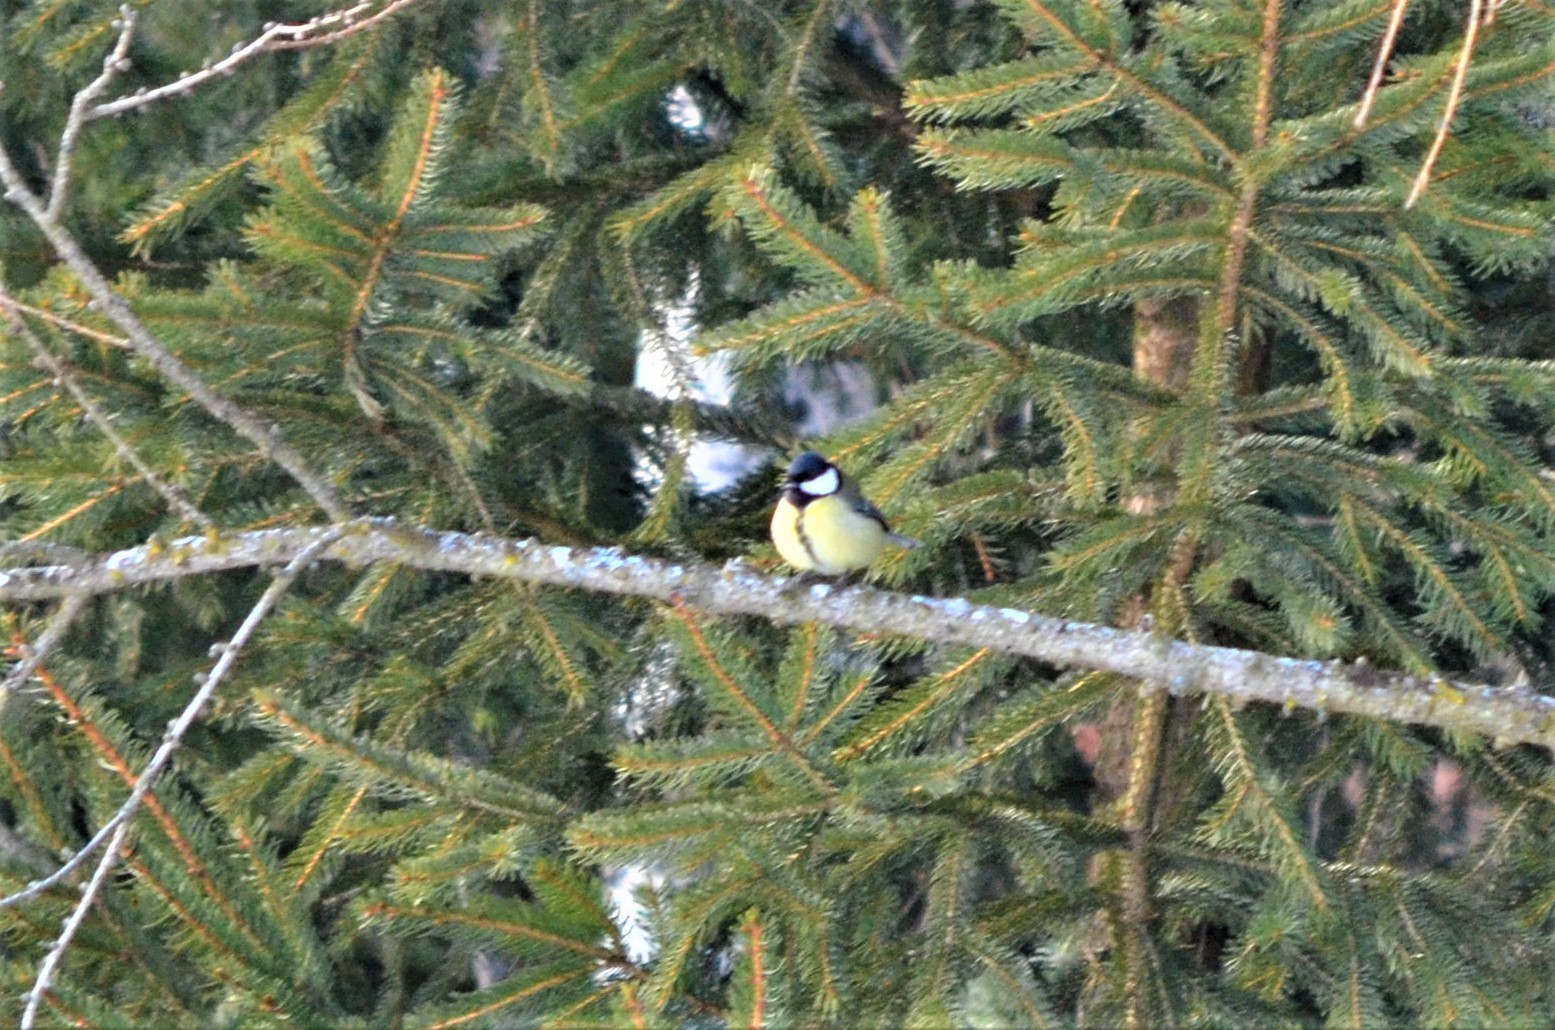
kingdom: Animalia
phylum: Chordata
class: Aves
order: Passeriformes
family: Paridae
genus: Parus
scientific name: Parus major
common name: Great tit
